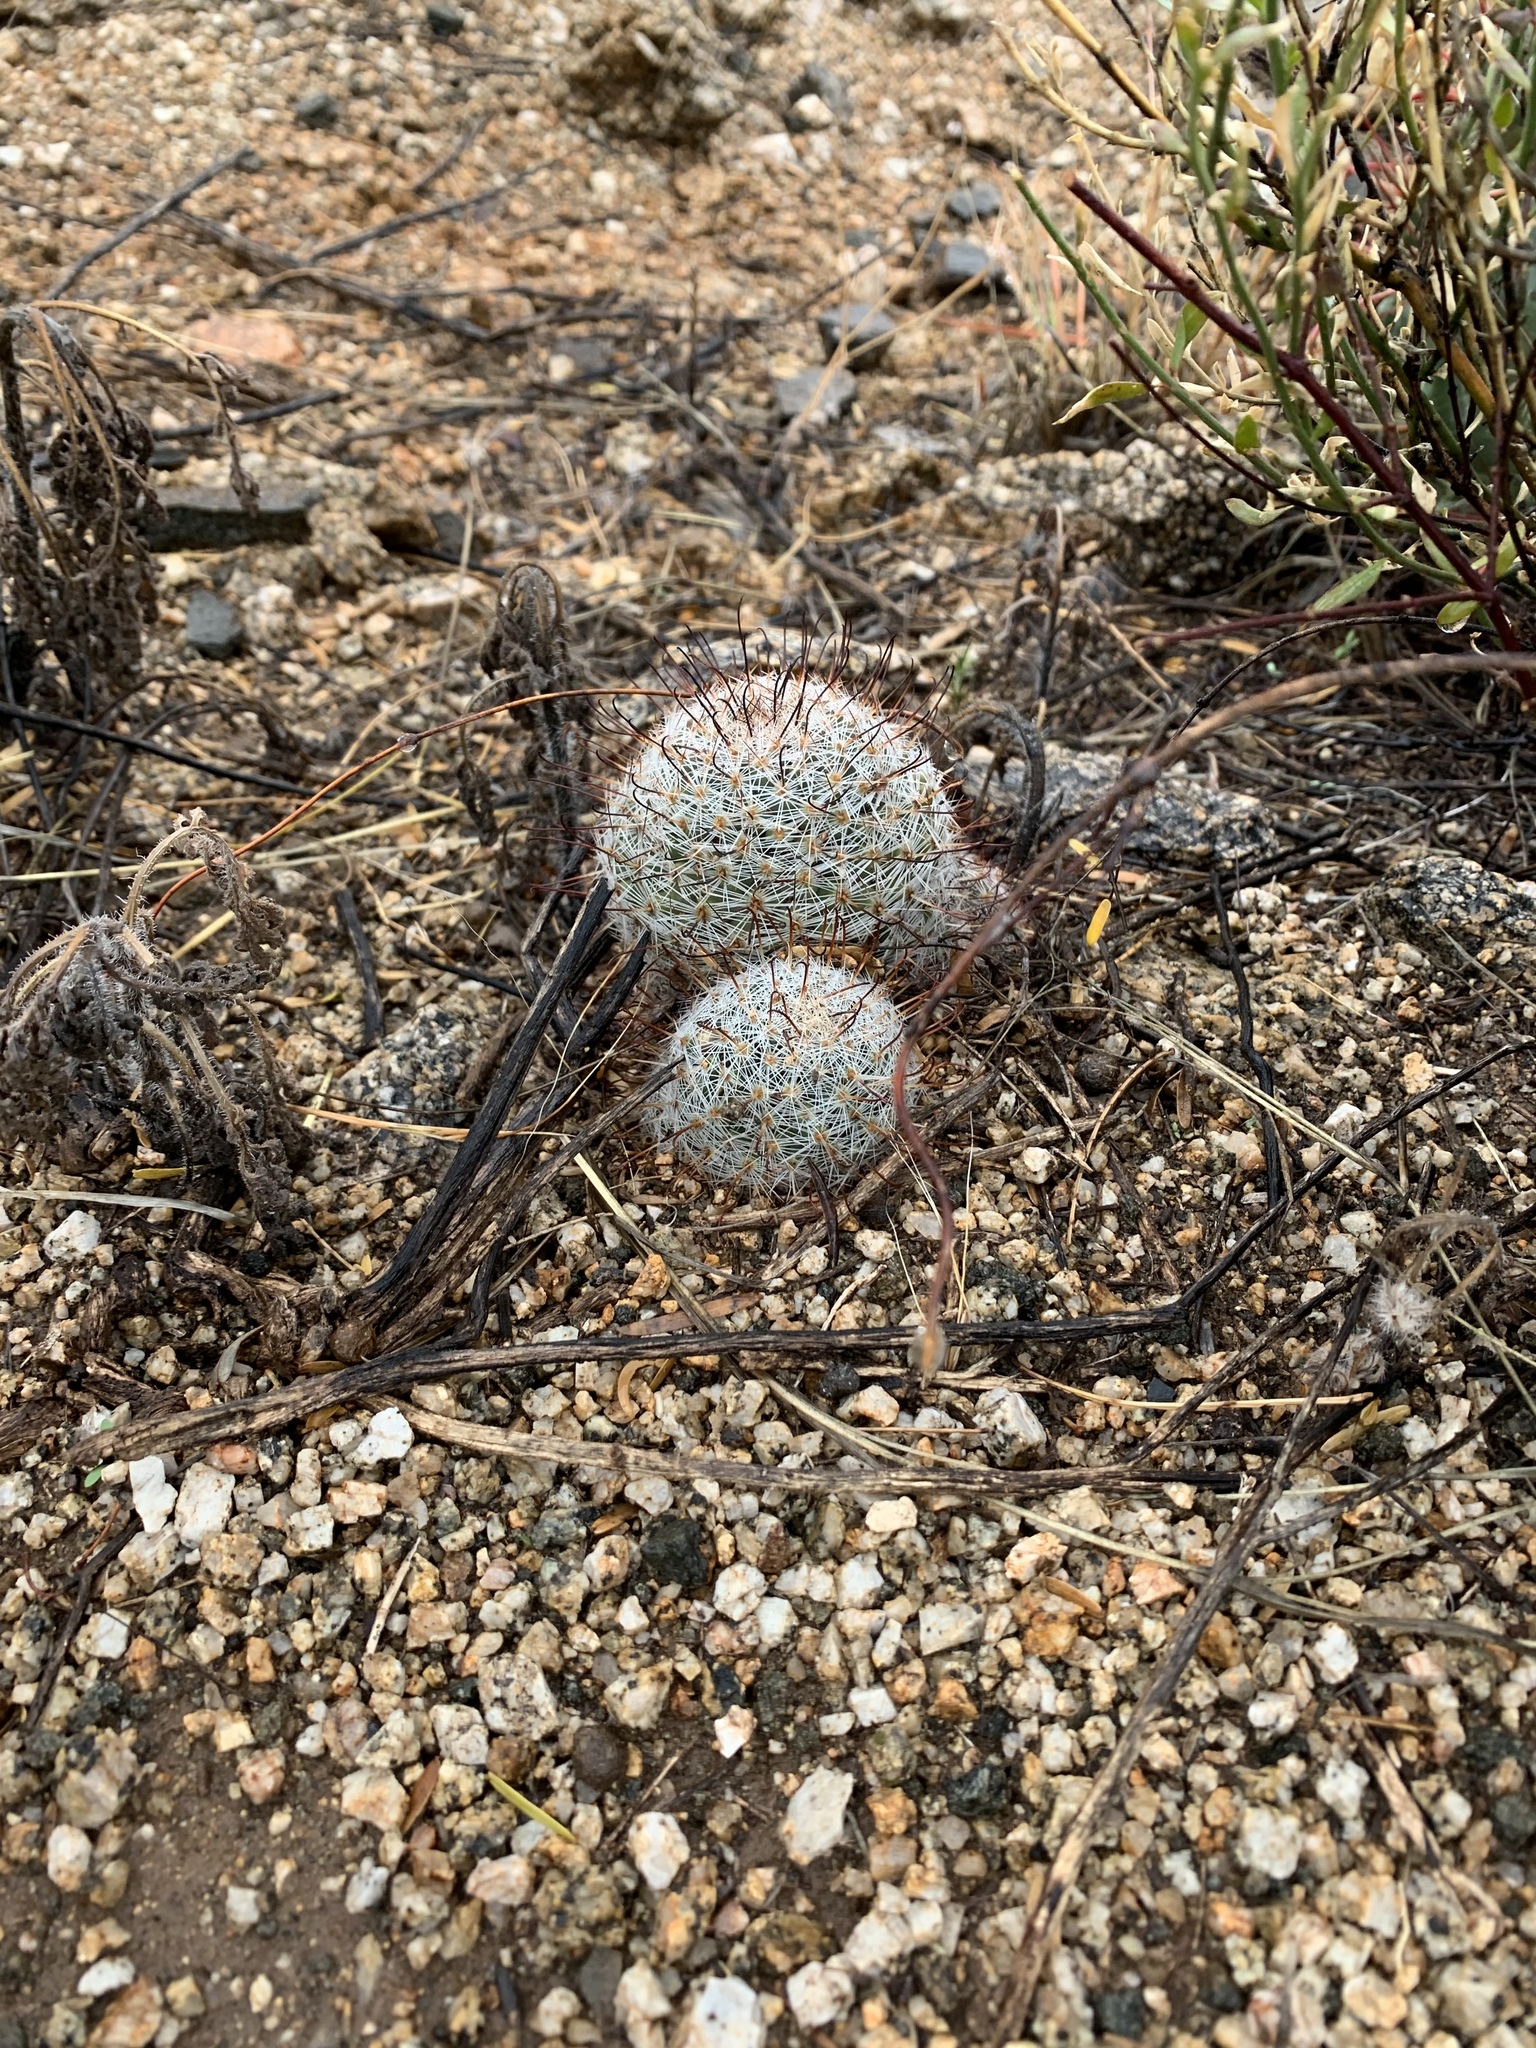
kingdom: Plantae
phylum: Tracheophyta
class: Magnoliopsida
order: Caryophyllales
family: Cactaceae
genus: Cochemiea
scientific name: Cochemiea grahamii
